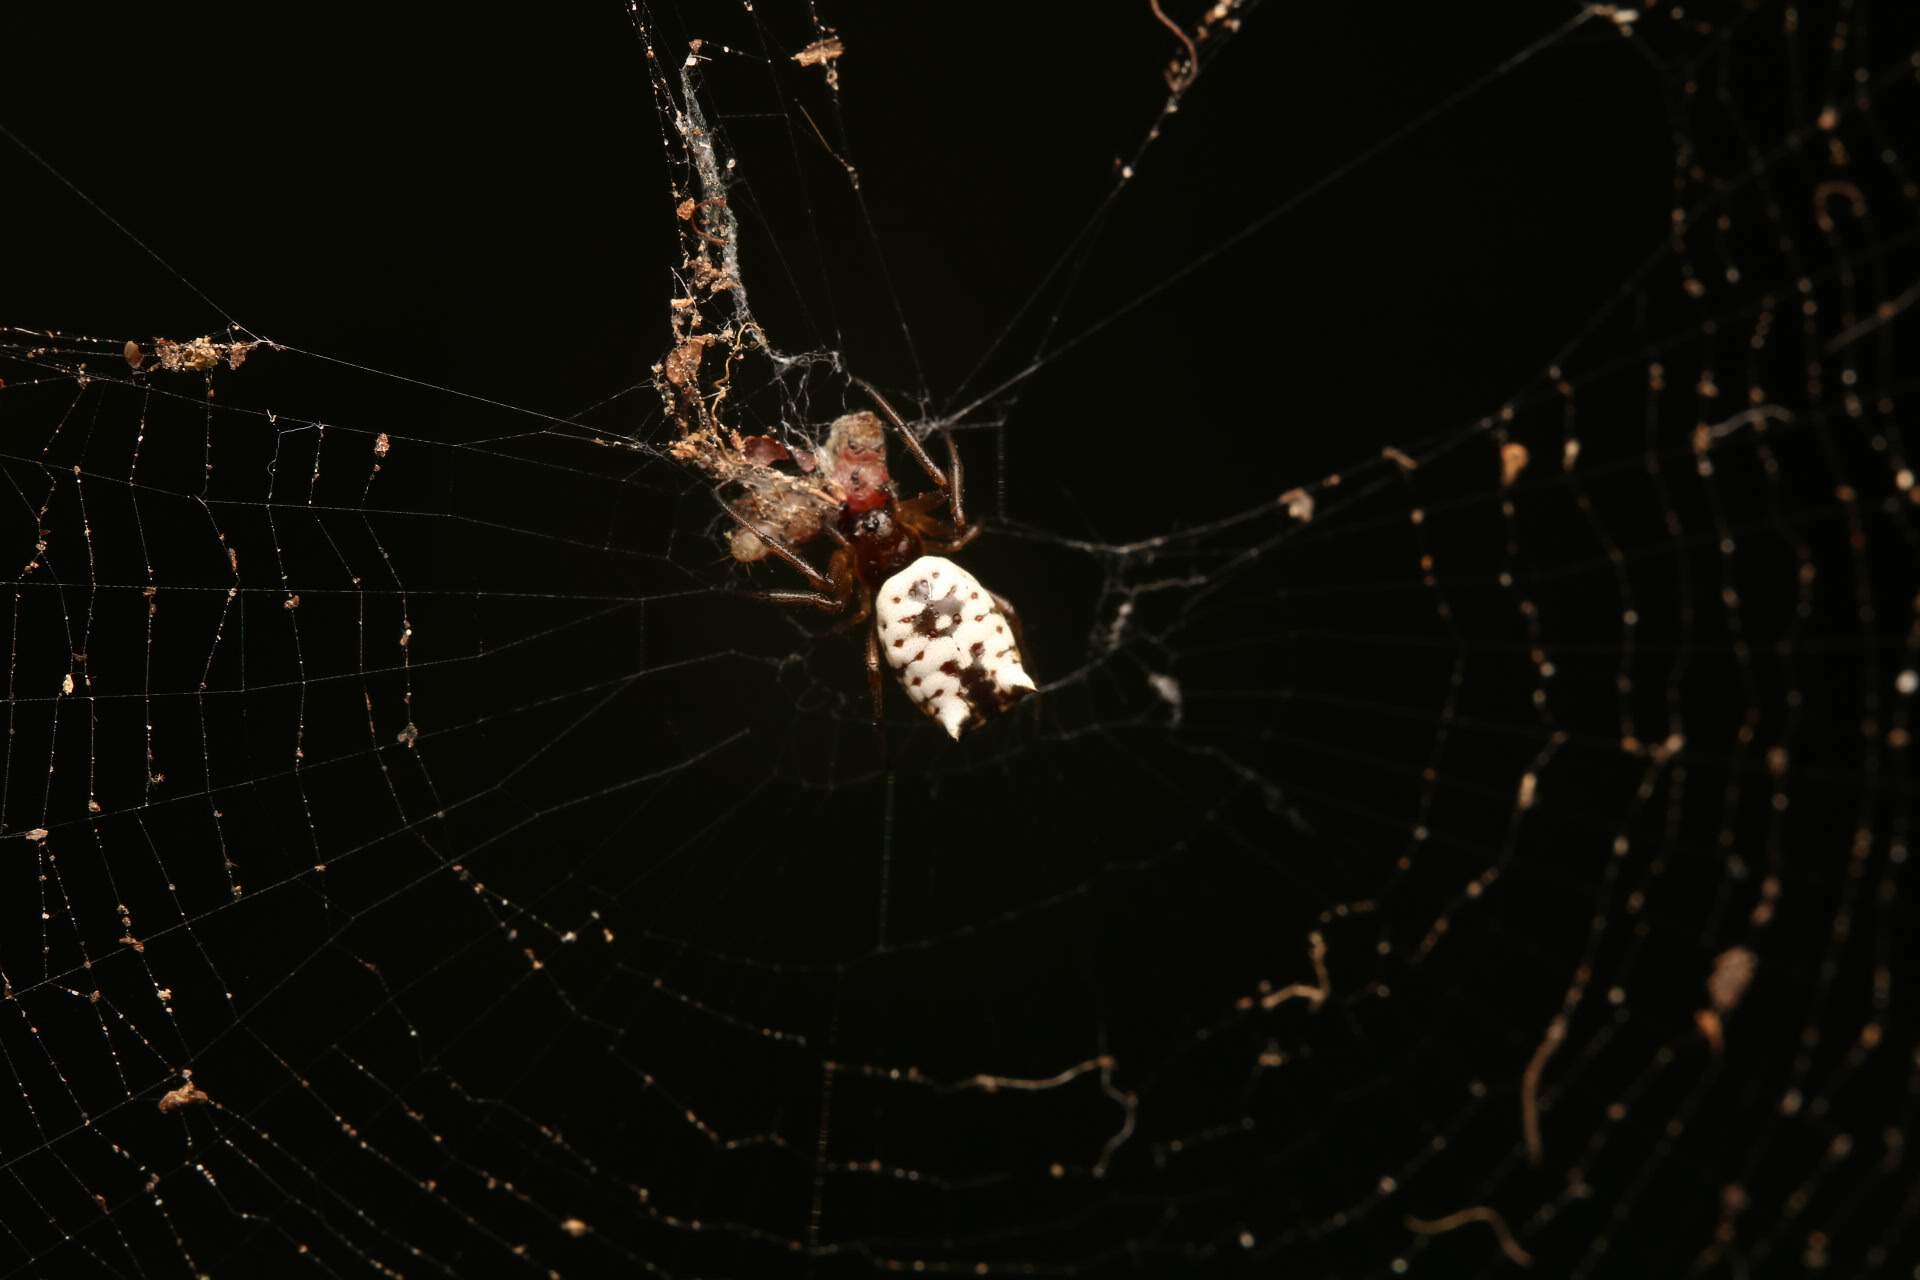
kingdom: Animalia
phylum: Arthropoda
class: Arachnida
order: Araneae
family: Araneidae
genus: Micrathena
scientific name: Micrathena mitrata
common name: Orb weavers
